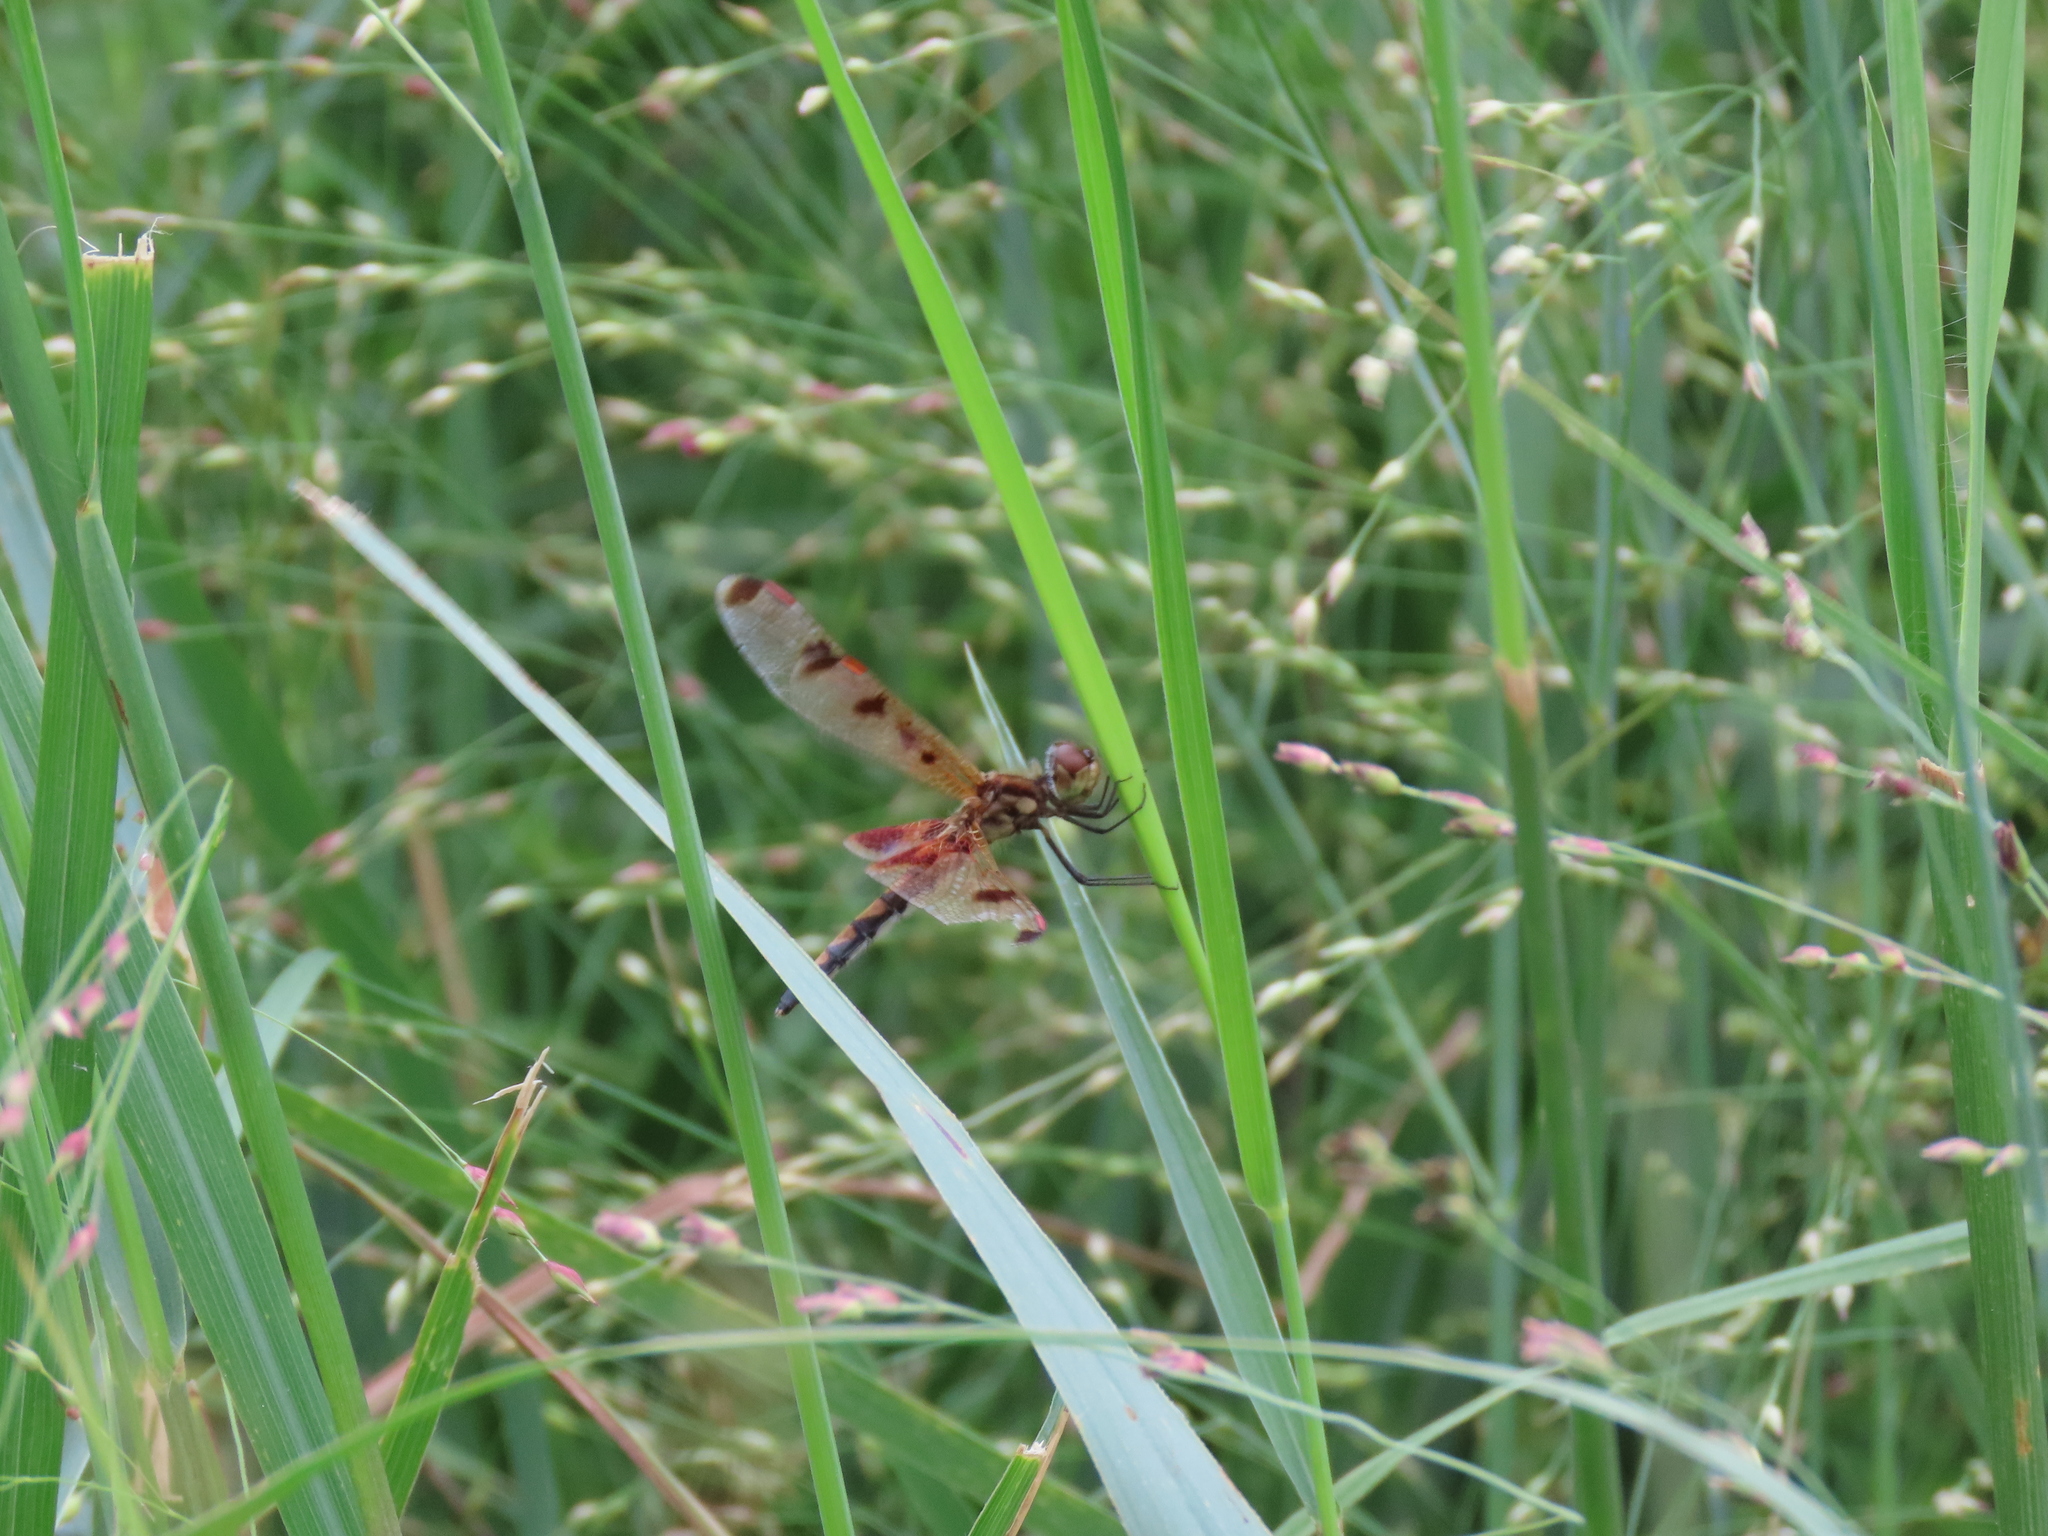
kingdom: Animalia
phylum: Arthropoda
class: Insecta
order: Odonata
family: Libellulidae
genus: Celithemis
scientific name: Celithemis elisa
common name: Calico pennant
